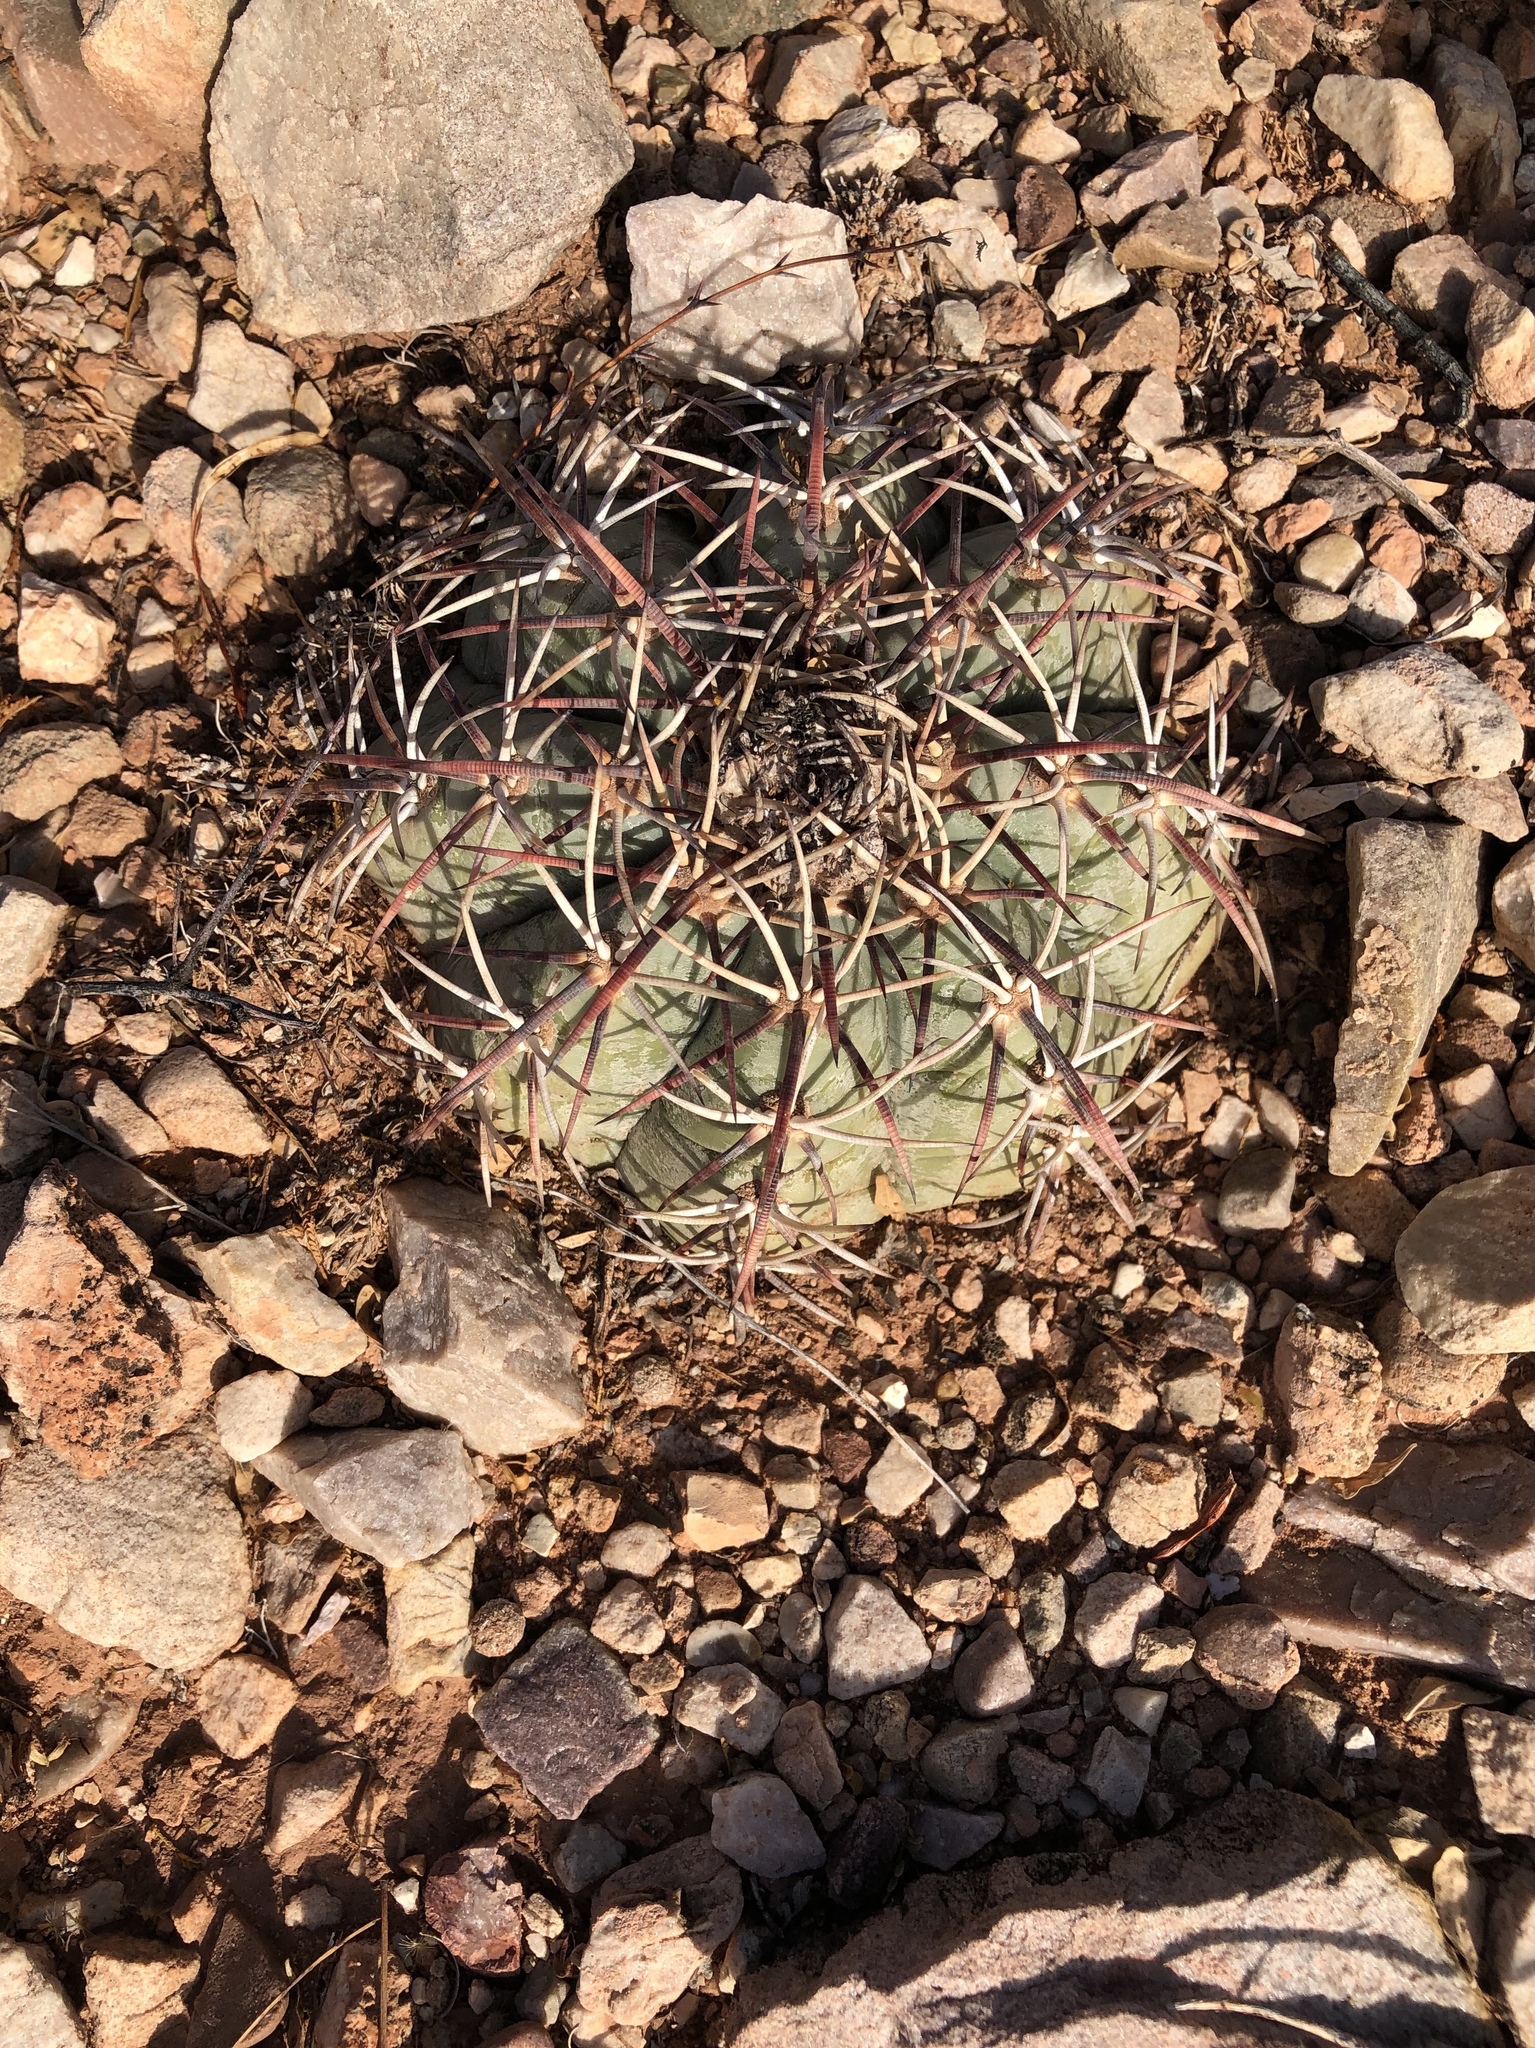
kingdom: Plantae
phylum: Tracheophyta
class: Magnoliopsida
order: Caryophyllales
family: Cactaceae
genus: Echinocactus
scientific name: Echinocactus horizonthalonius
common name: Devilshead
